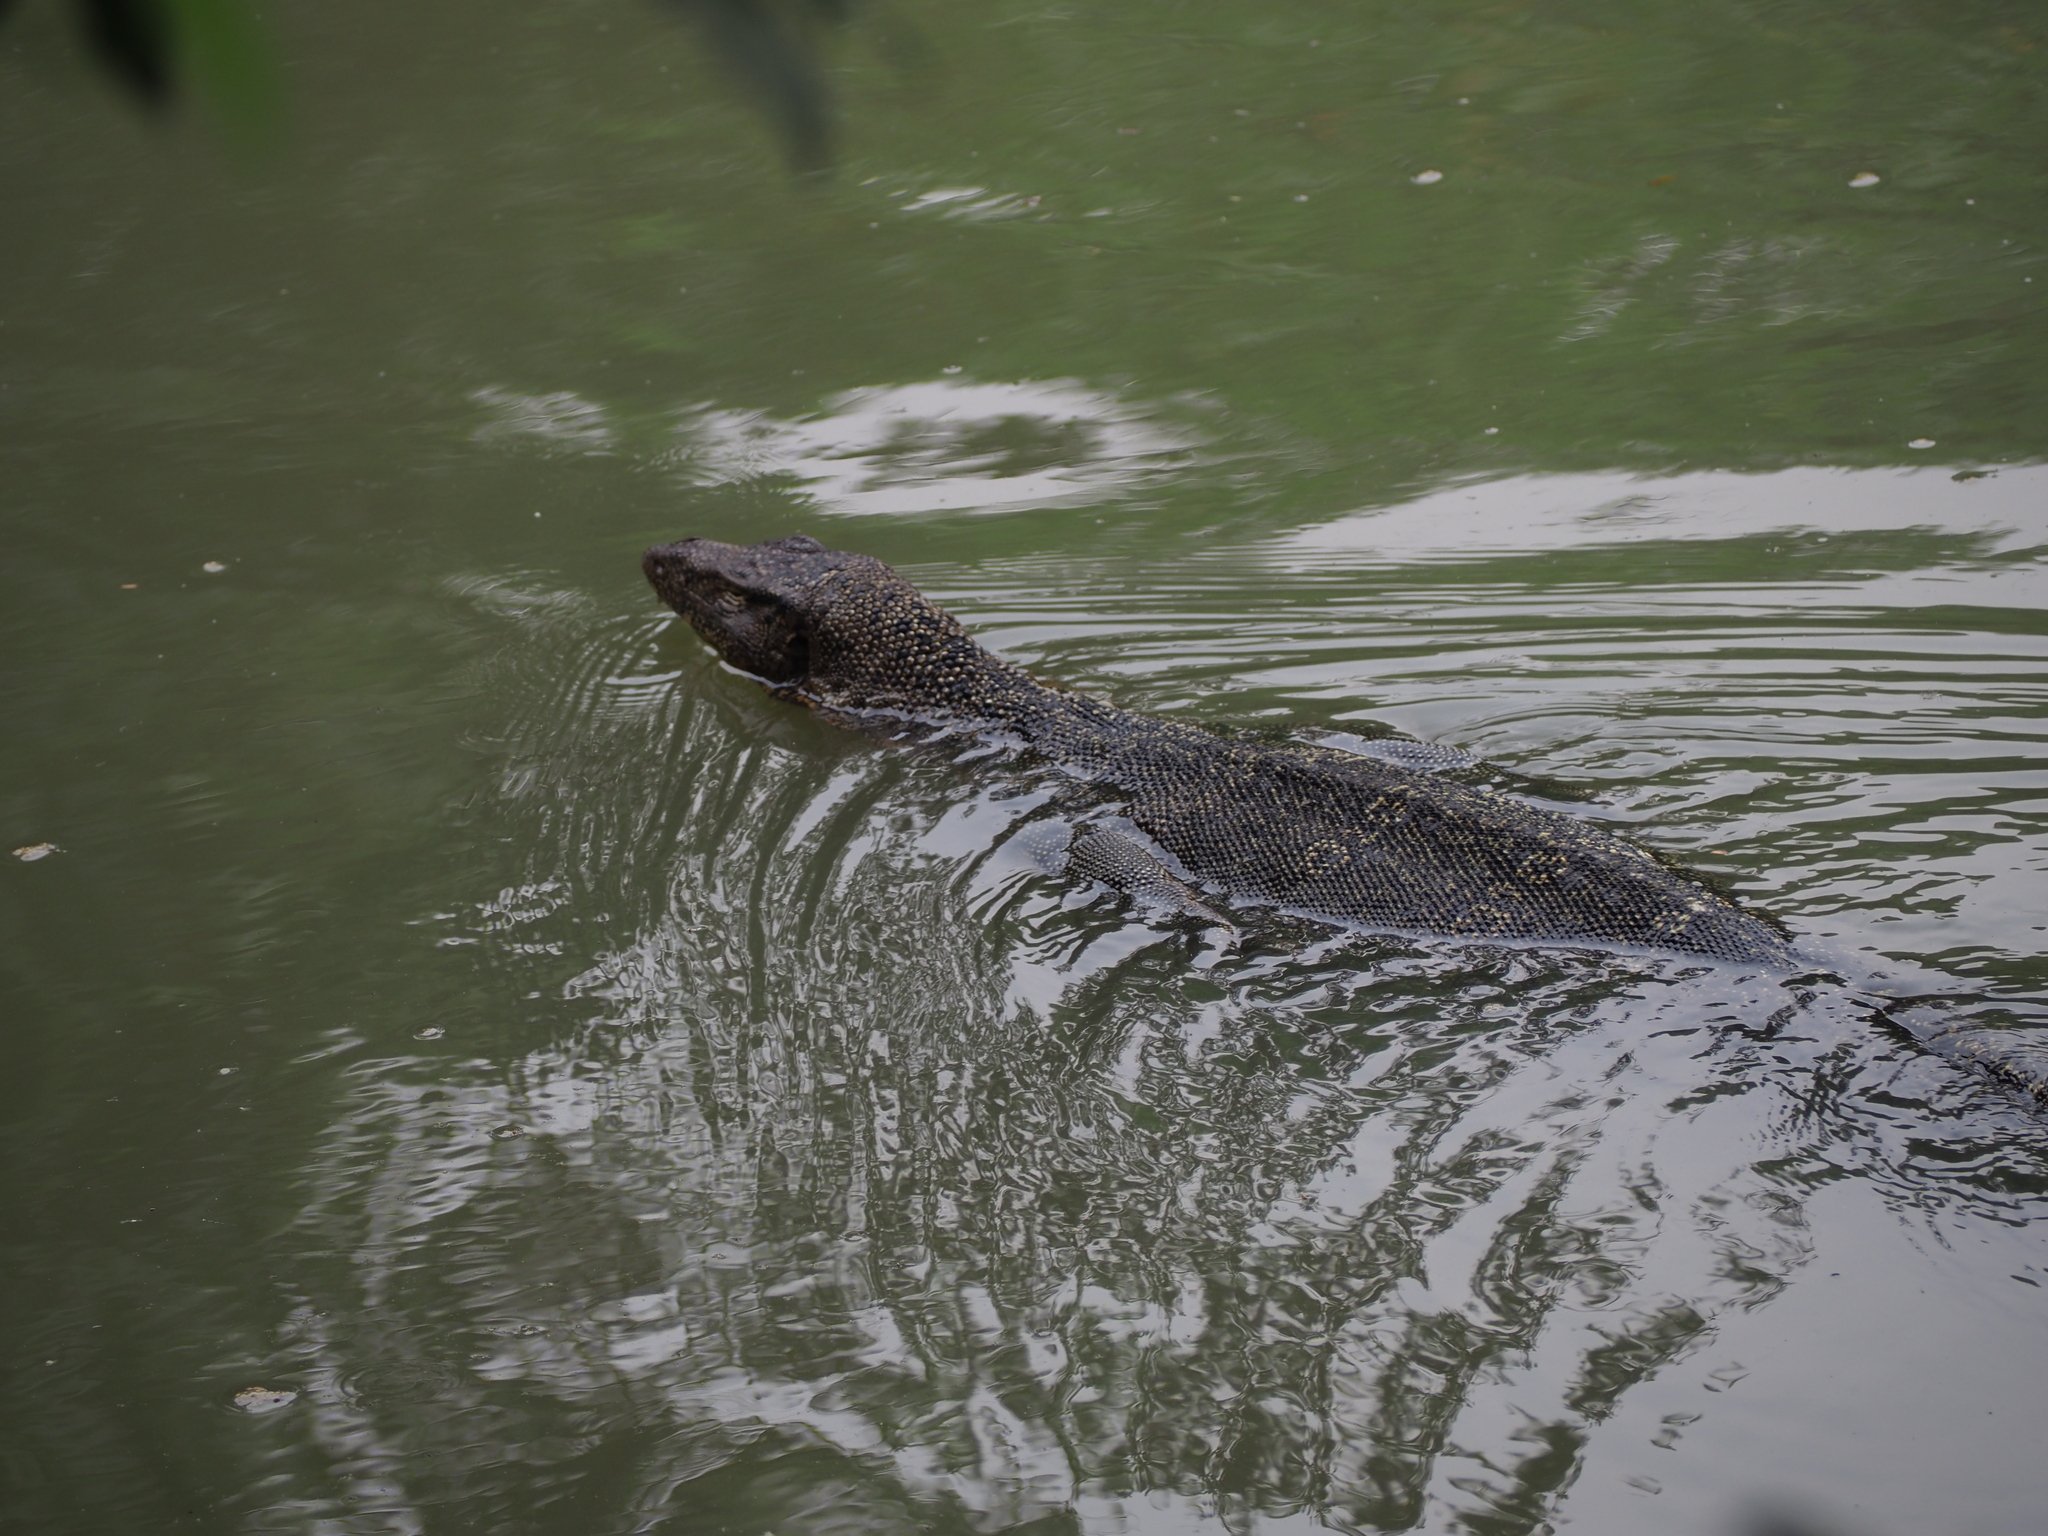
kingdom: Animalia
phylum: Chordata
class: Squamata
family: Varanidae
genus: Varanus
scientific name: Varanus salvator
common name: Common water monitor
